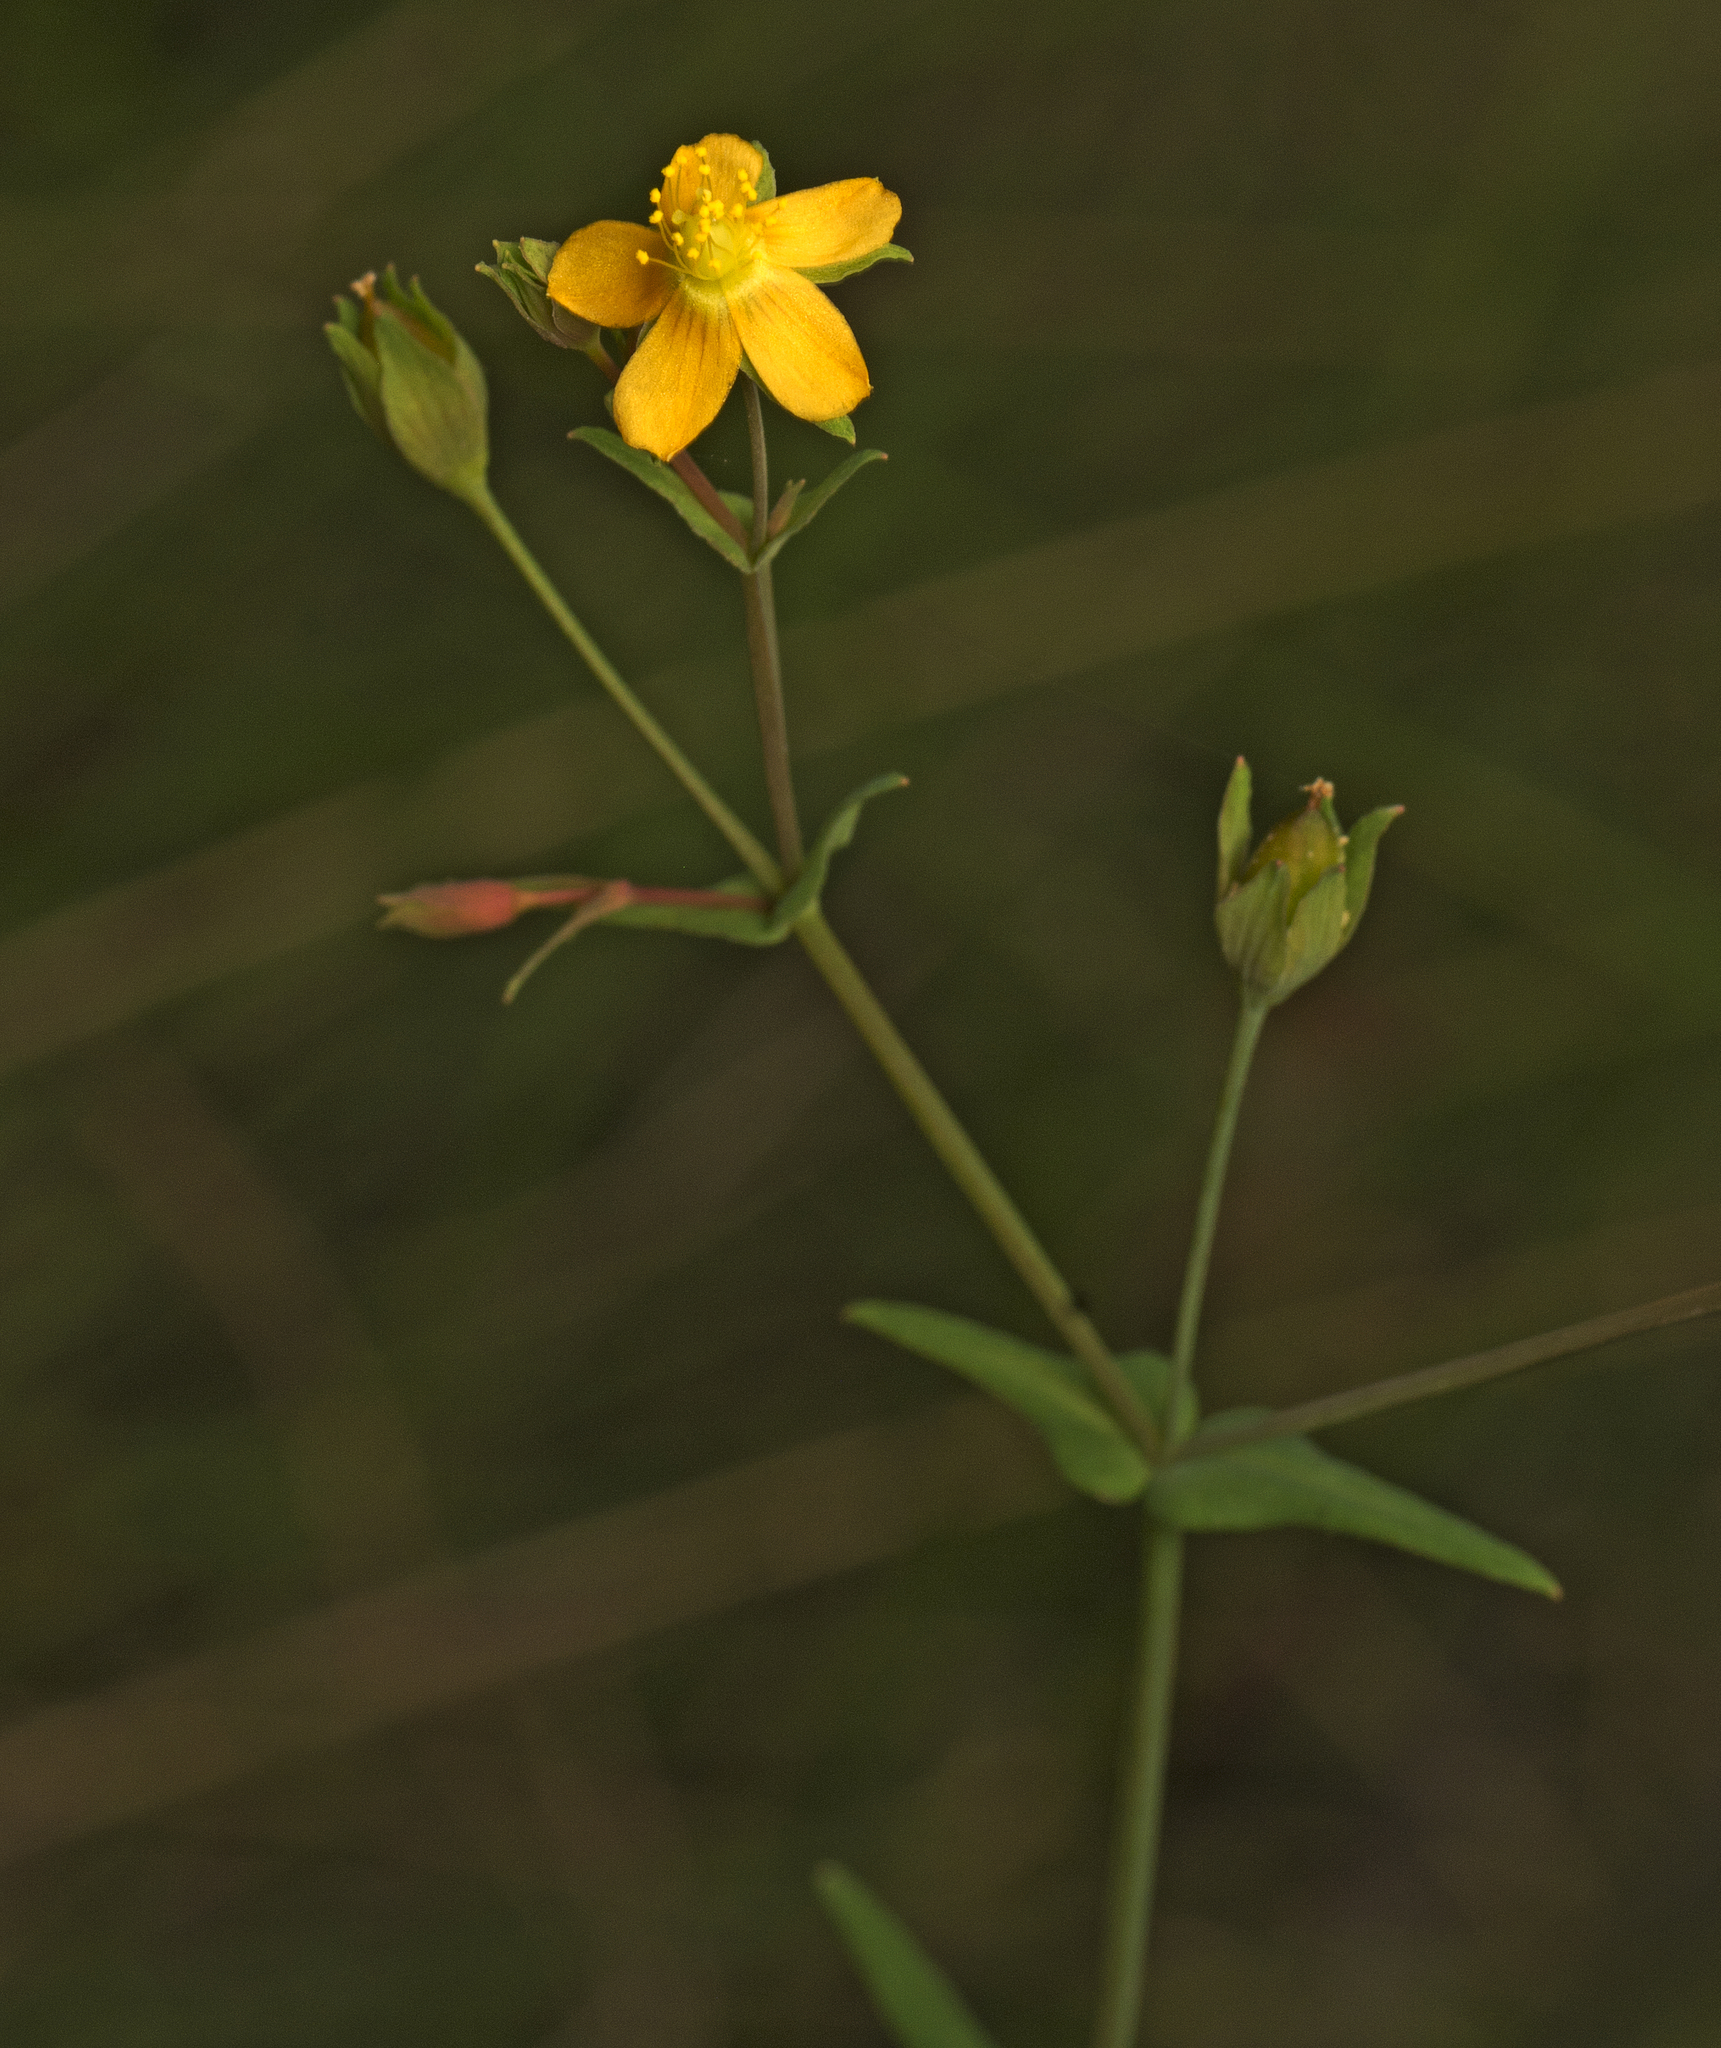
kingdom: Plantae
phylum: Tracheophyta
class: Magnoliopsida
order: Malpighiales
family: Hypericaceae
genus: Hypericum
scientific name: Hypericum gramineum
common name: Grassy st. johnswort
